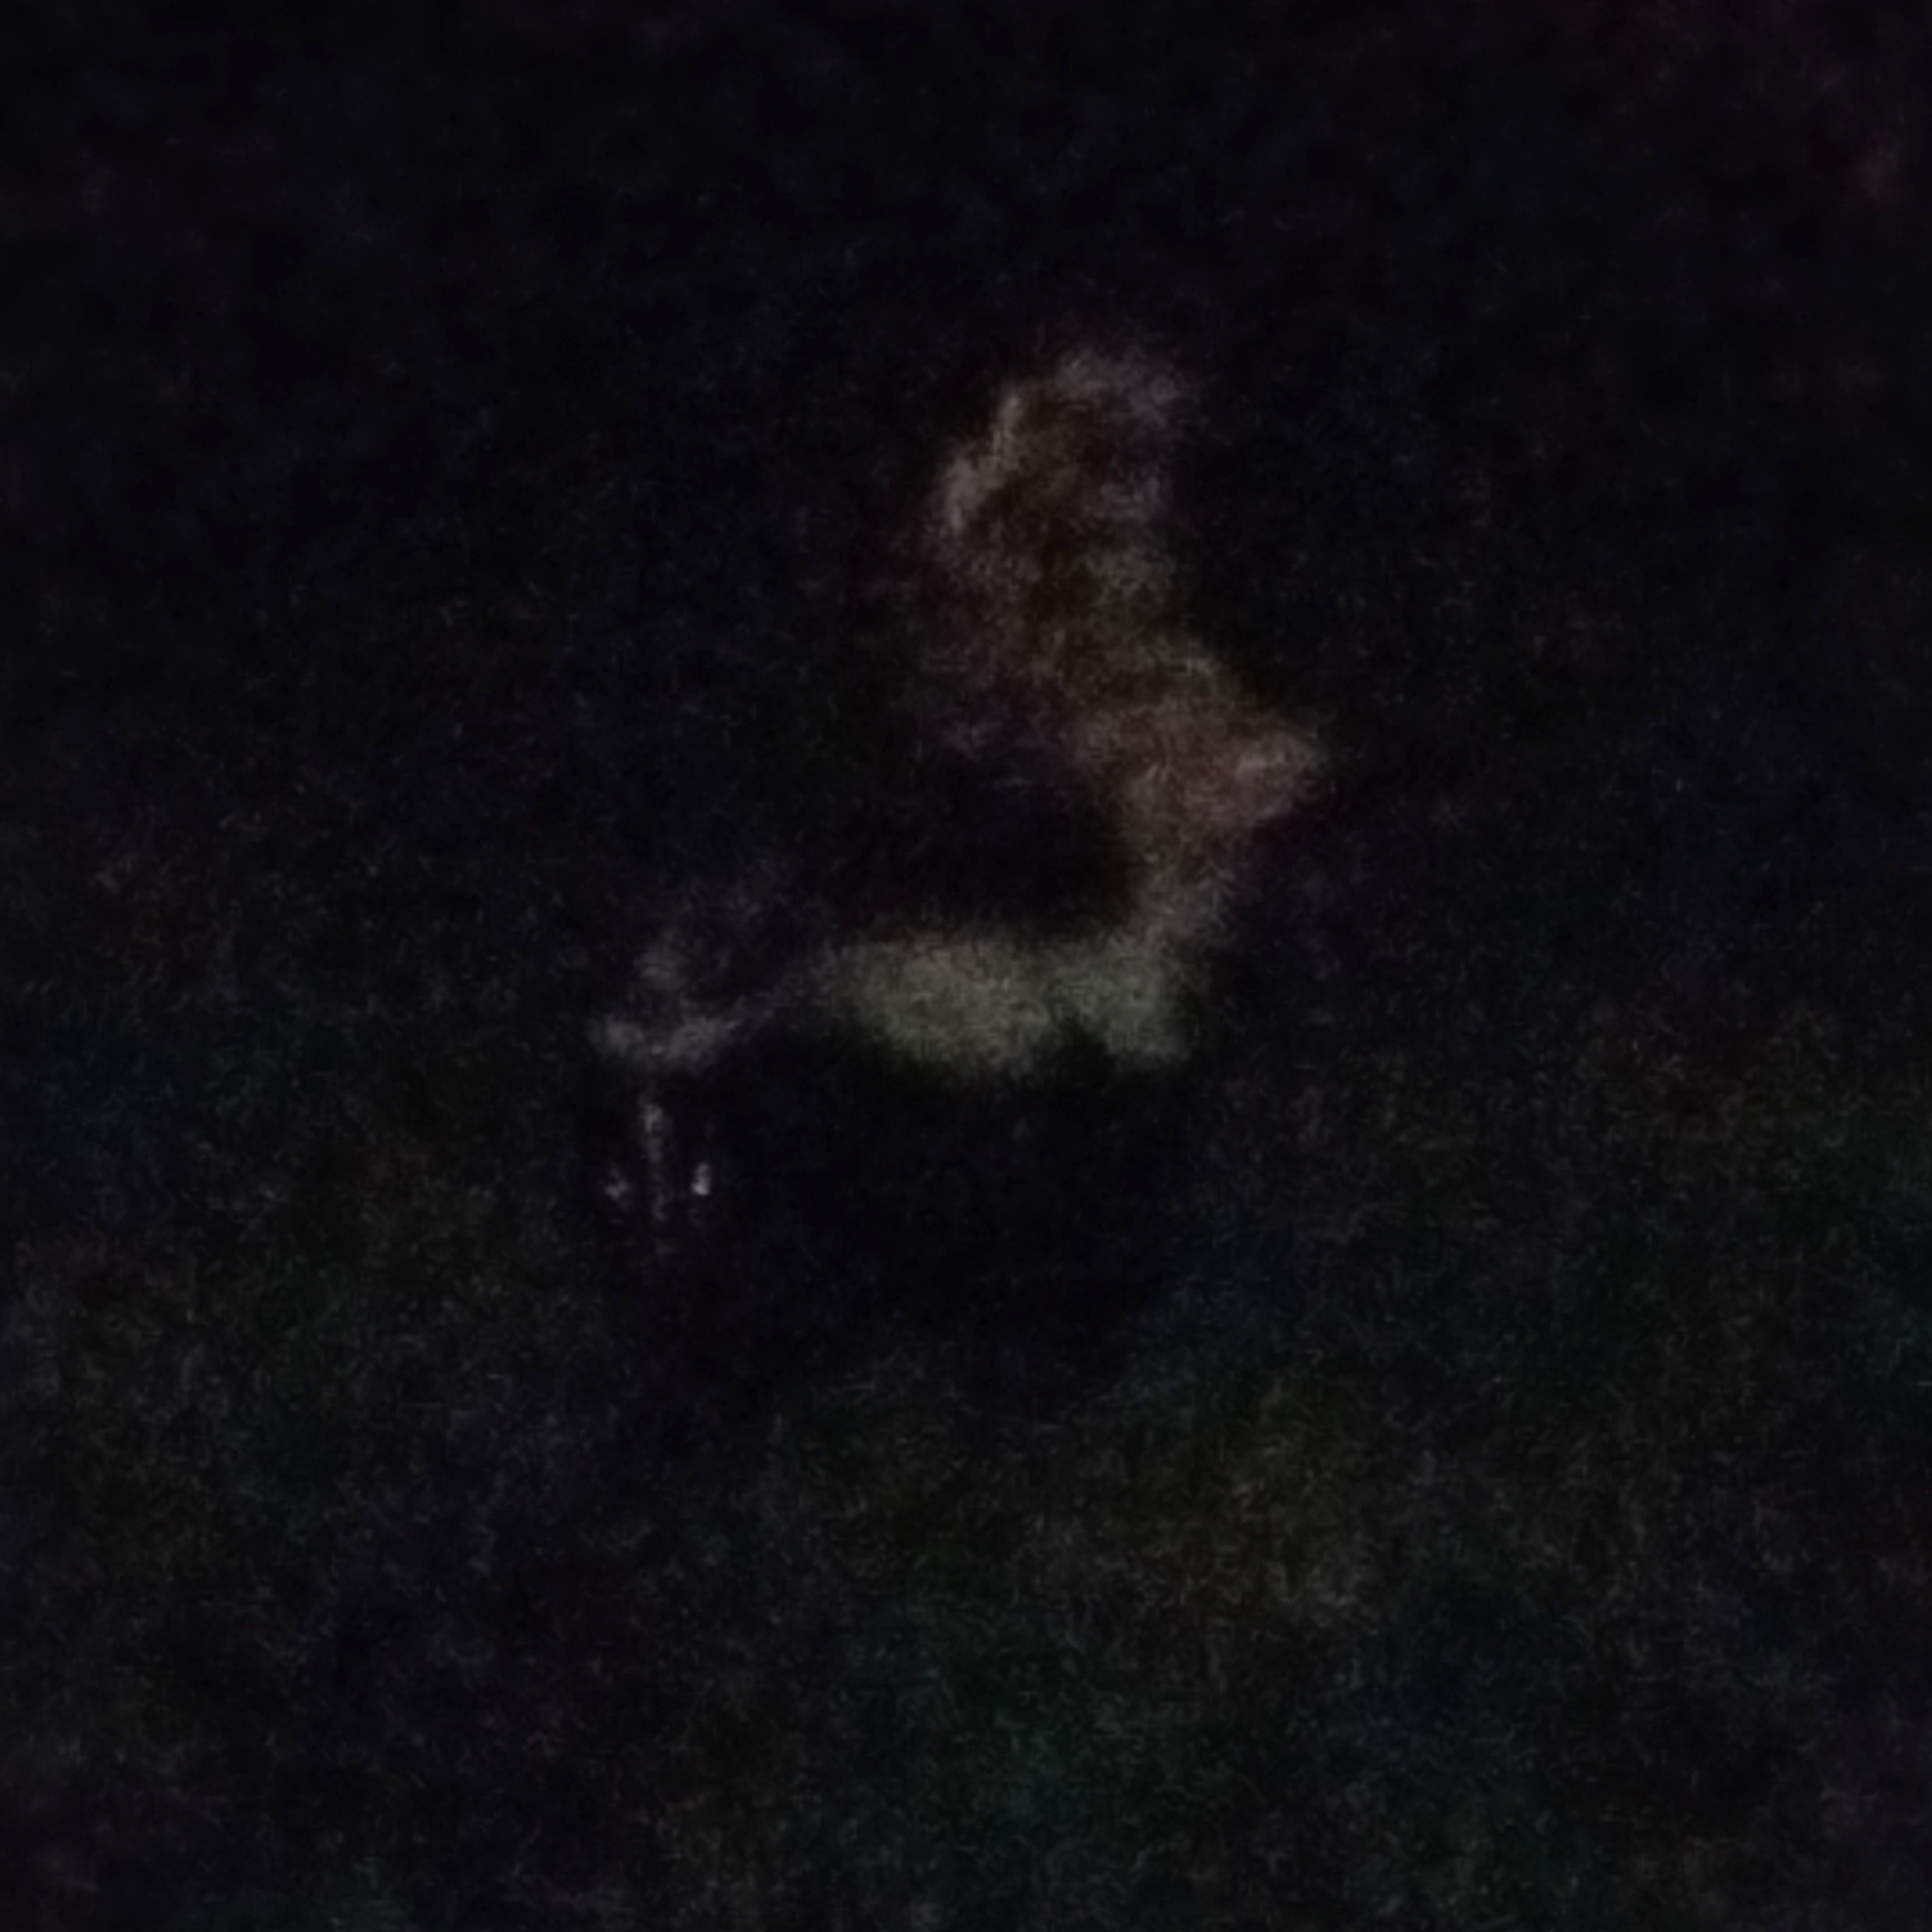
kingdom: Animalia
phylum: Chordata
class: Mammalia
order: Carnivora
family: Mephitidae
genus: Mephitis
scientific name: Mephitis mephitis
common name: Striped skunk
